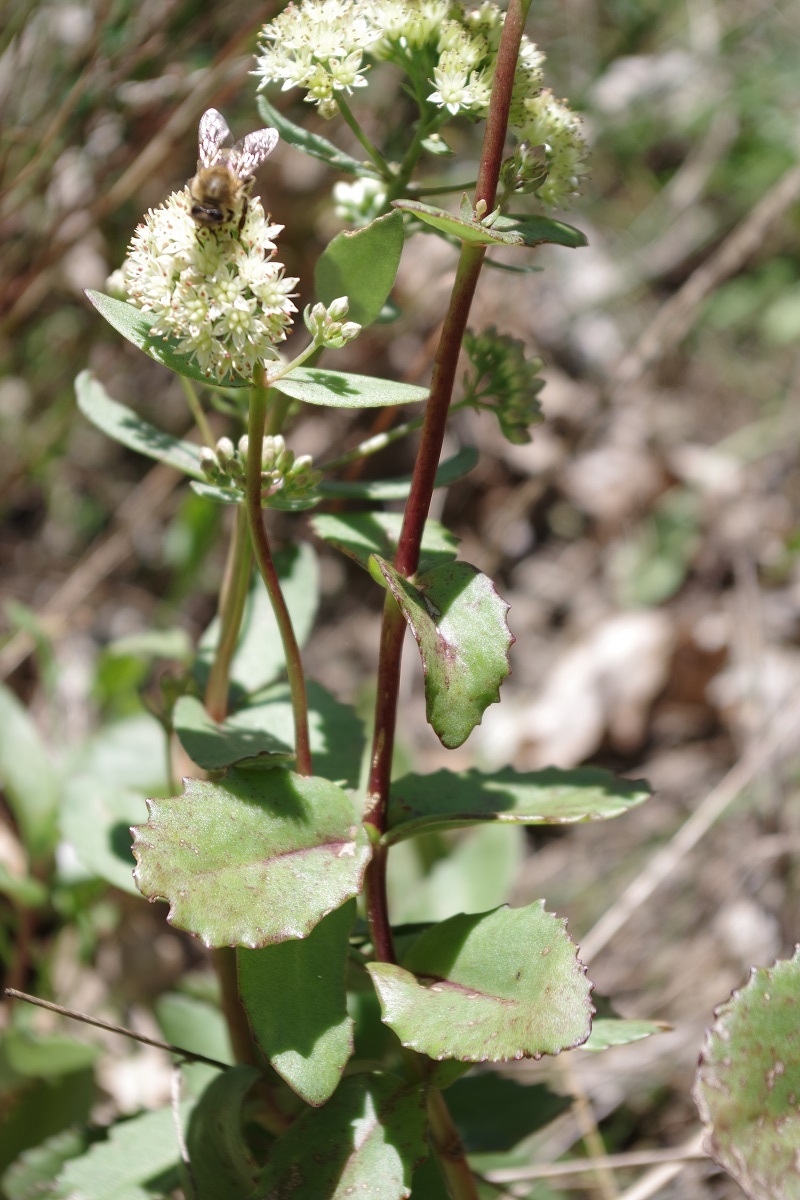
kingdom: Plantae
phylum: Tracheophyta
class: Magnoliopsida
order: Saxifragales
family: Crassulaceae
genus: Hylotelephium
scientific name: Hylotelephium maximum
